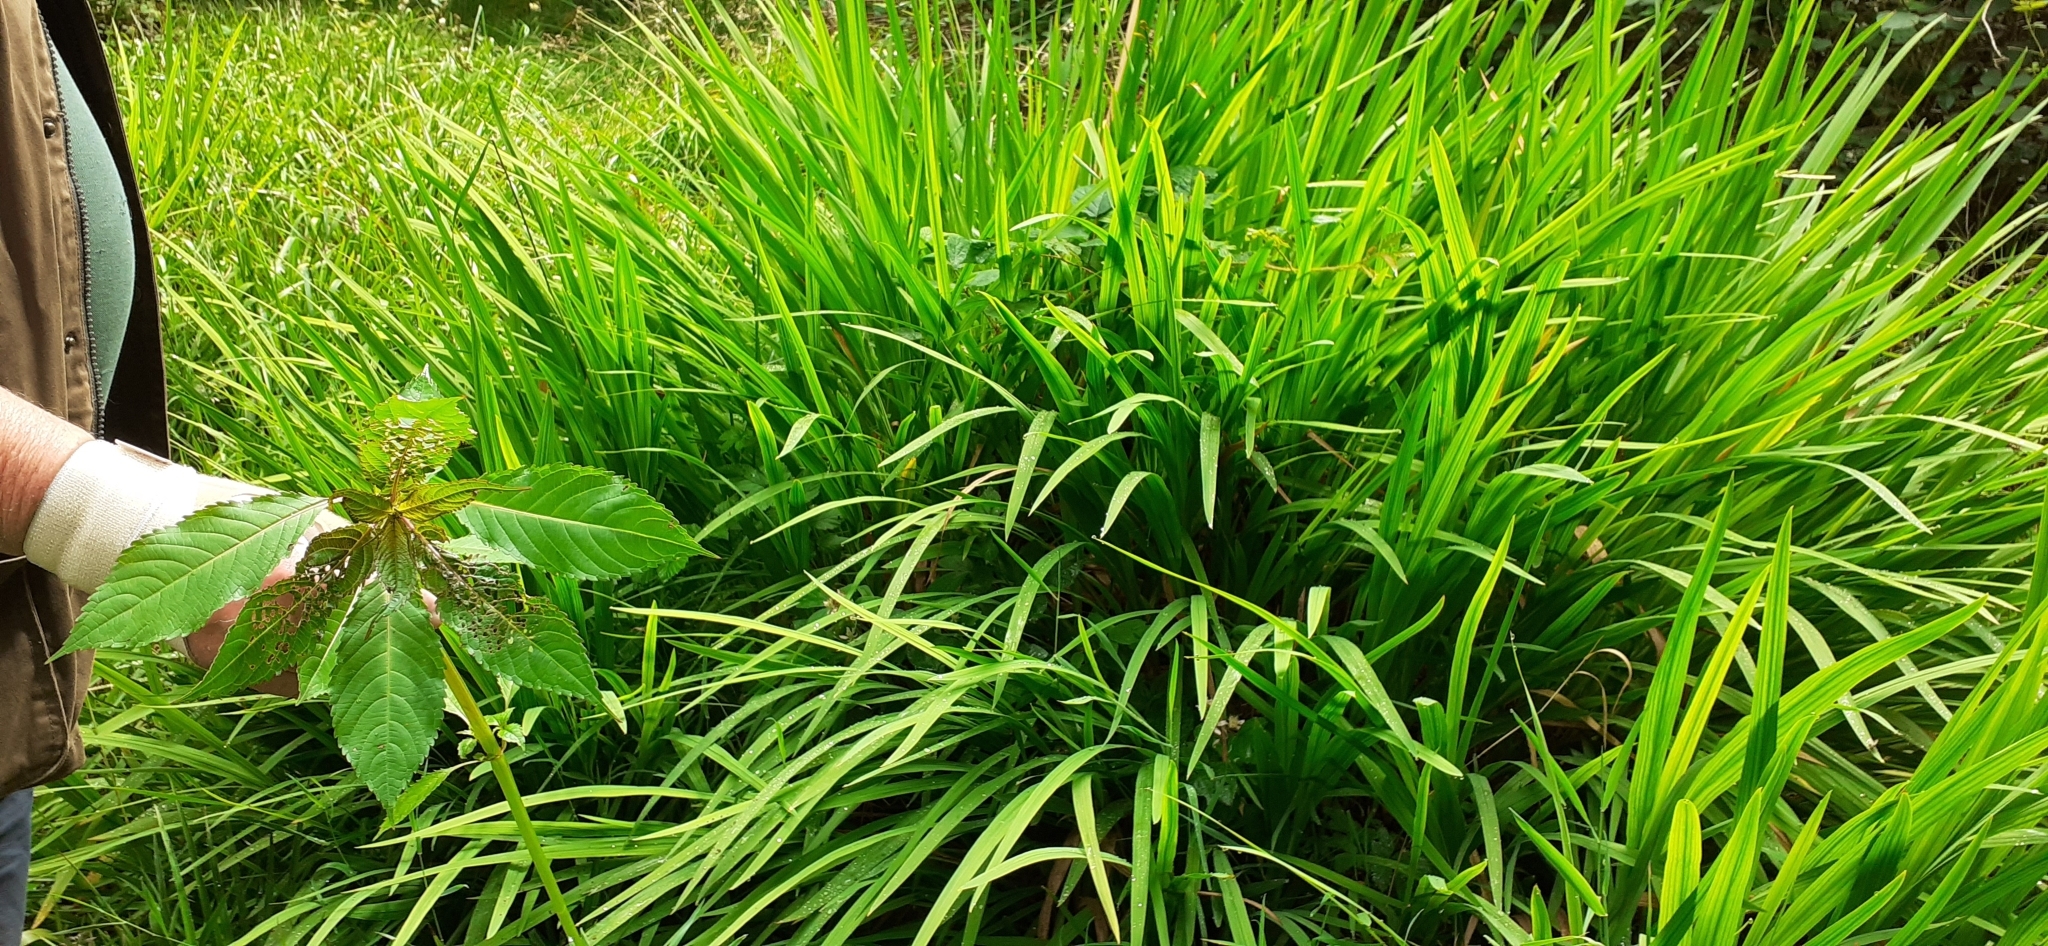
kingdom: Plantae
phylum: Tracheophyta
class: Liliopsida
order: Asparagales
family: Iridaceae
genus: Crocosmia
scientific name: Crocosmia crocosmiiflora
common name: Montbretia
